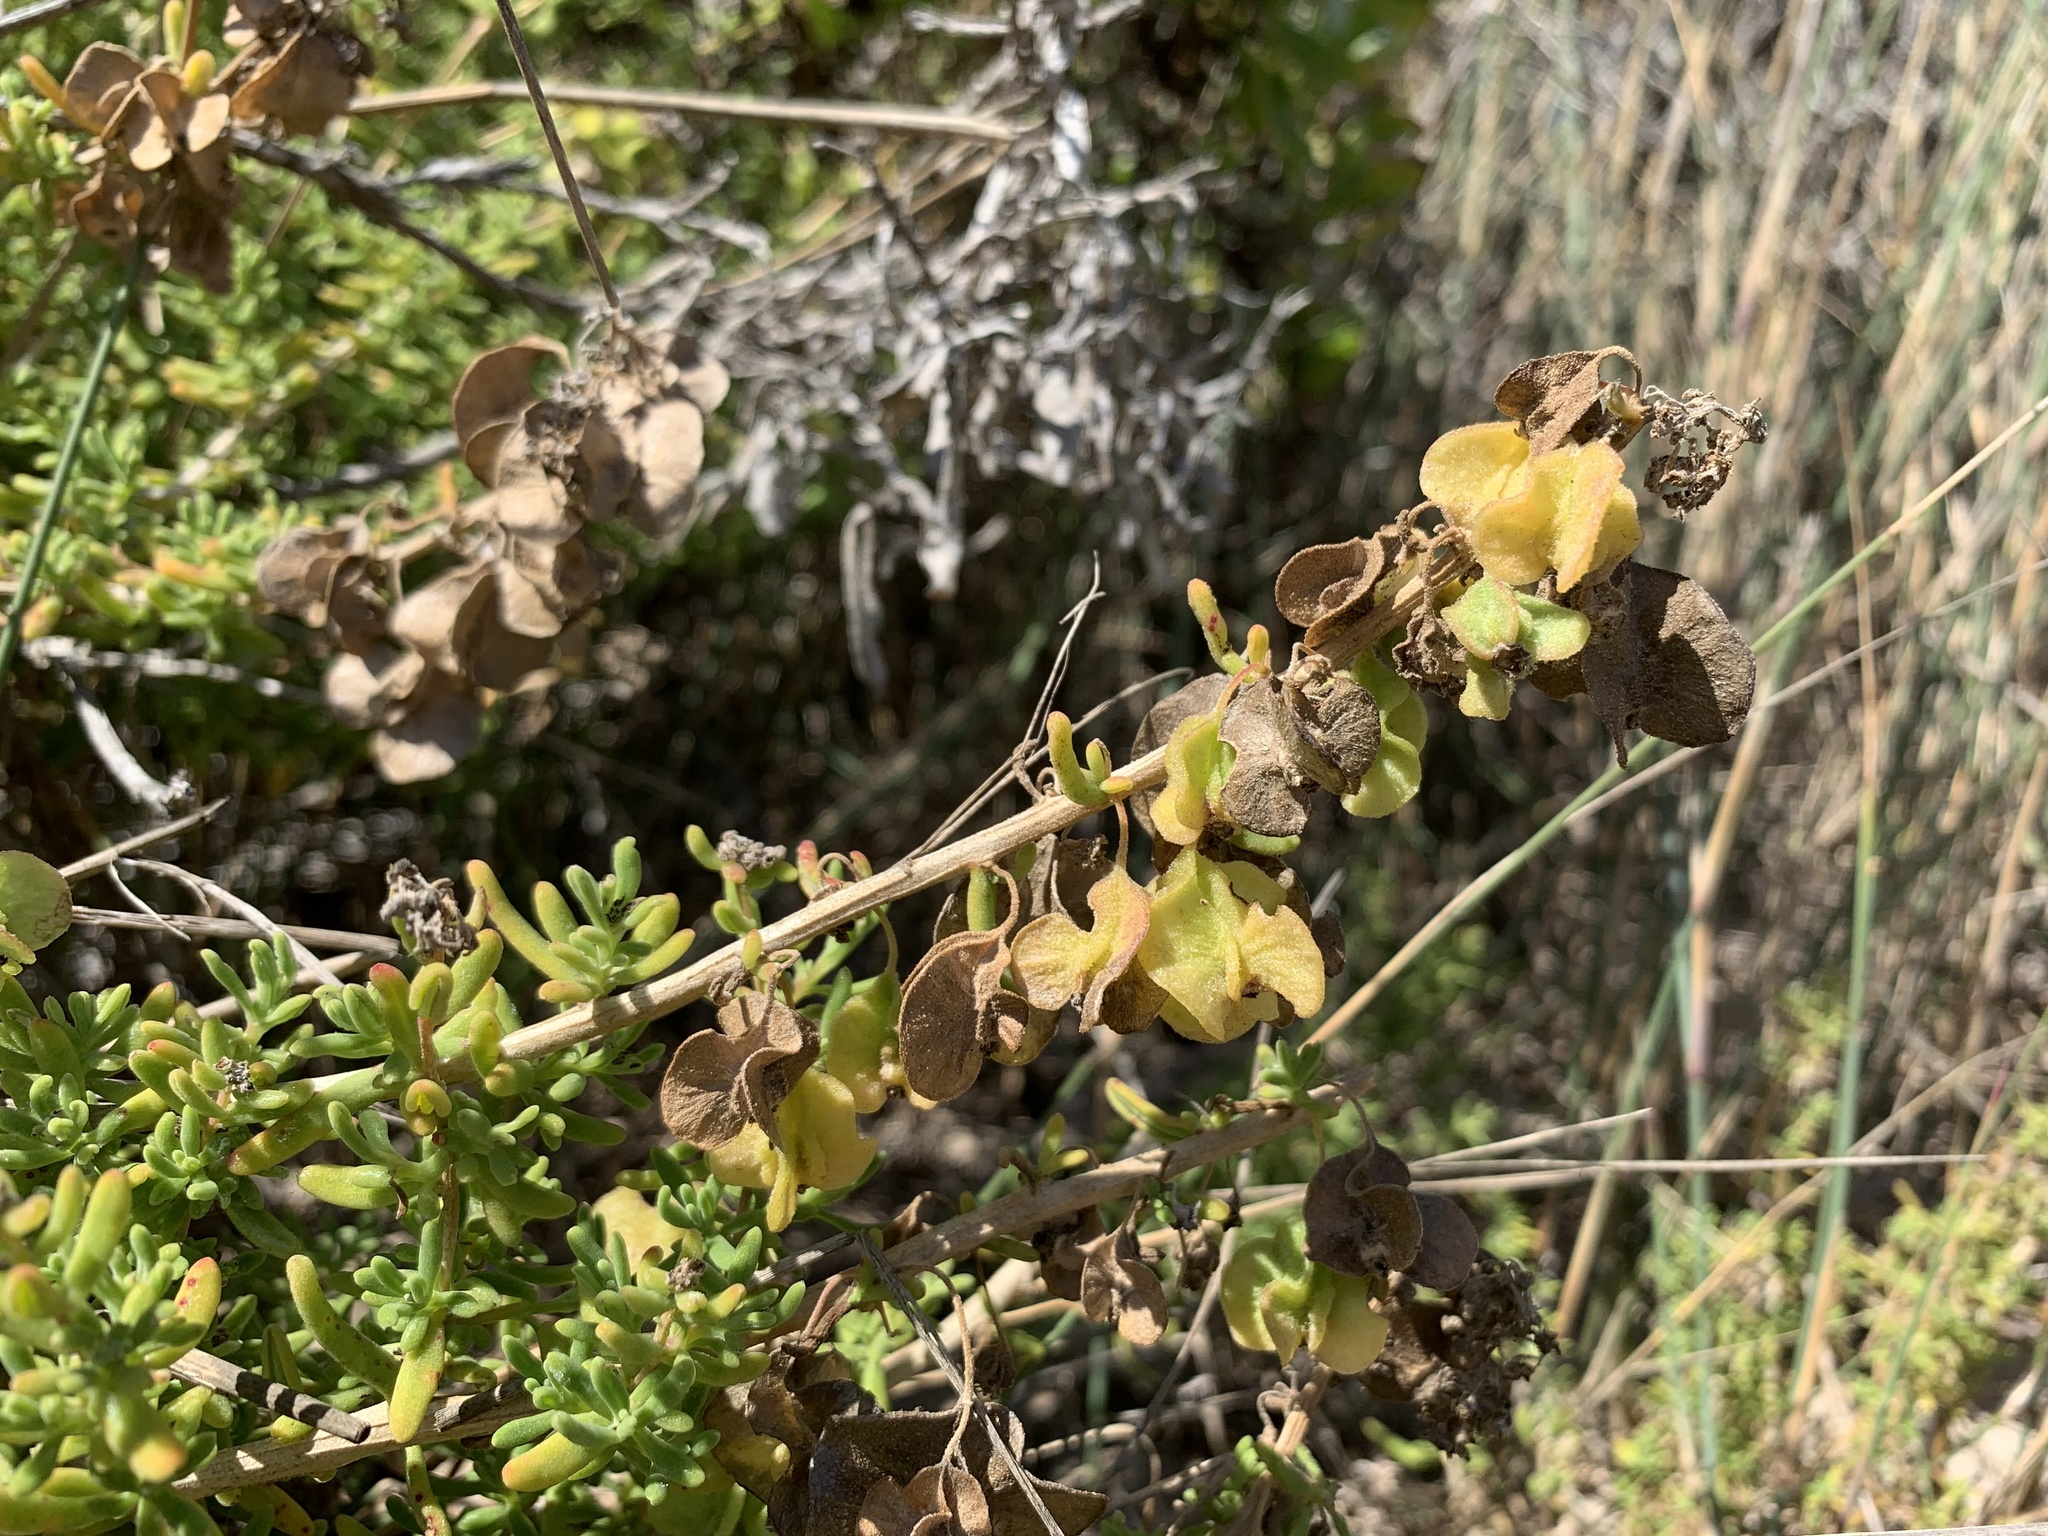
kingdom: Plantae
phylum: Tracheophyta
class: Magnoliopsida
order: Caryophyllales
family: Aizoaceae
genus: Tetragonia
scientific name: Tetragonia fruticosa
